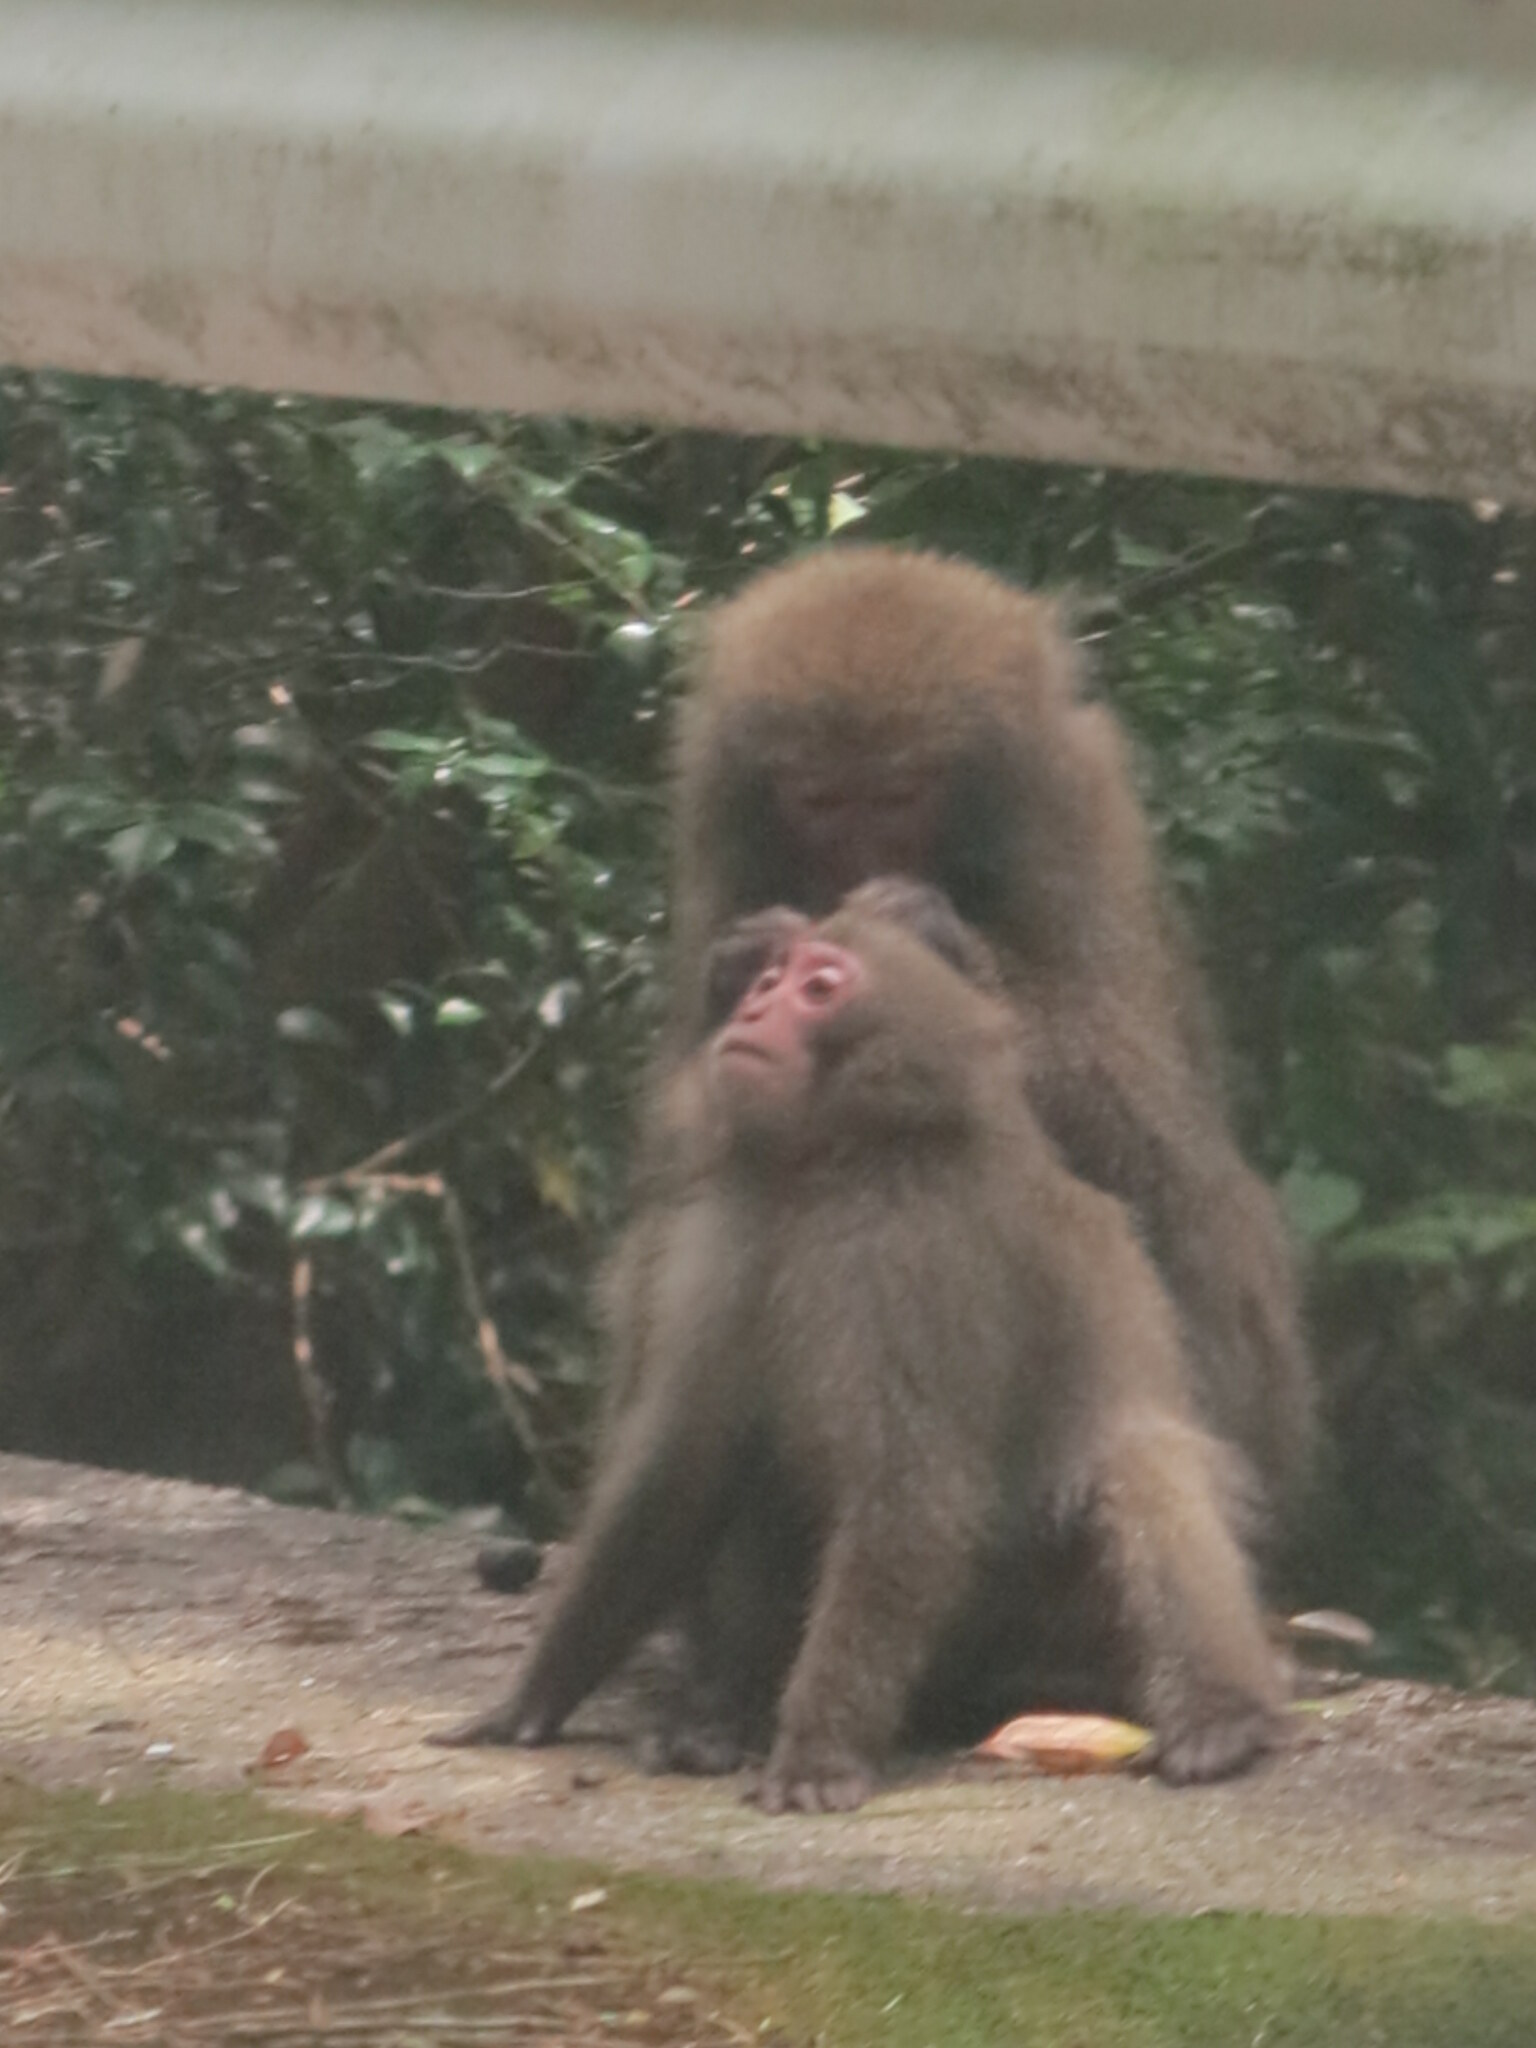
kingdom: Animalia
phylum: Chordata
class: Mammalia
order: Primates
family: Cercopithecidae
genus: Macaca
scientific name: Macaca fuscata
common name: Japanese macaque
